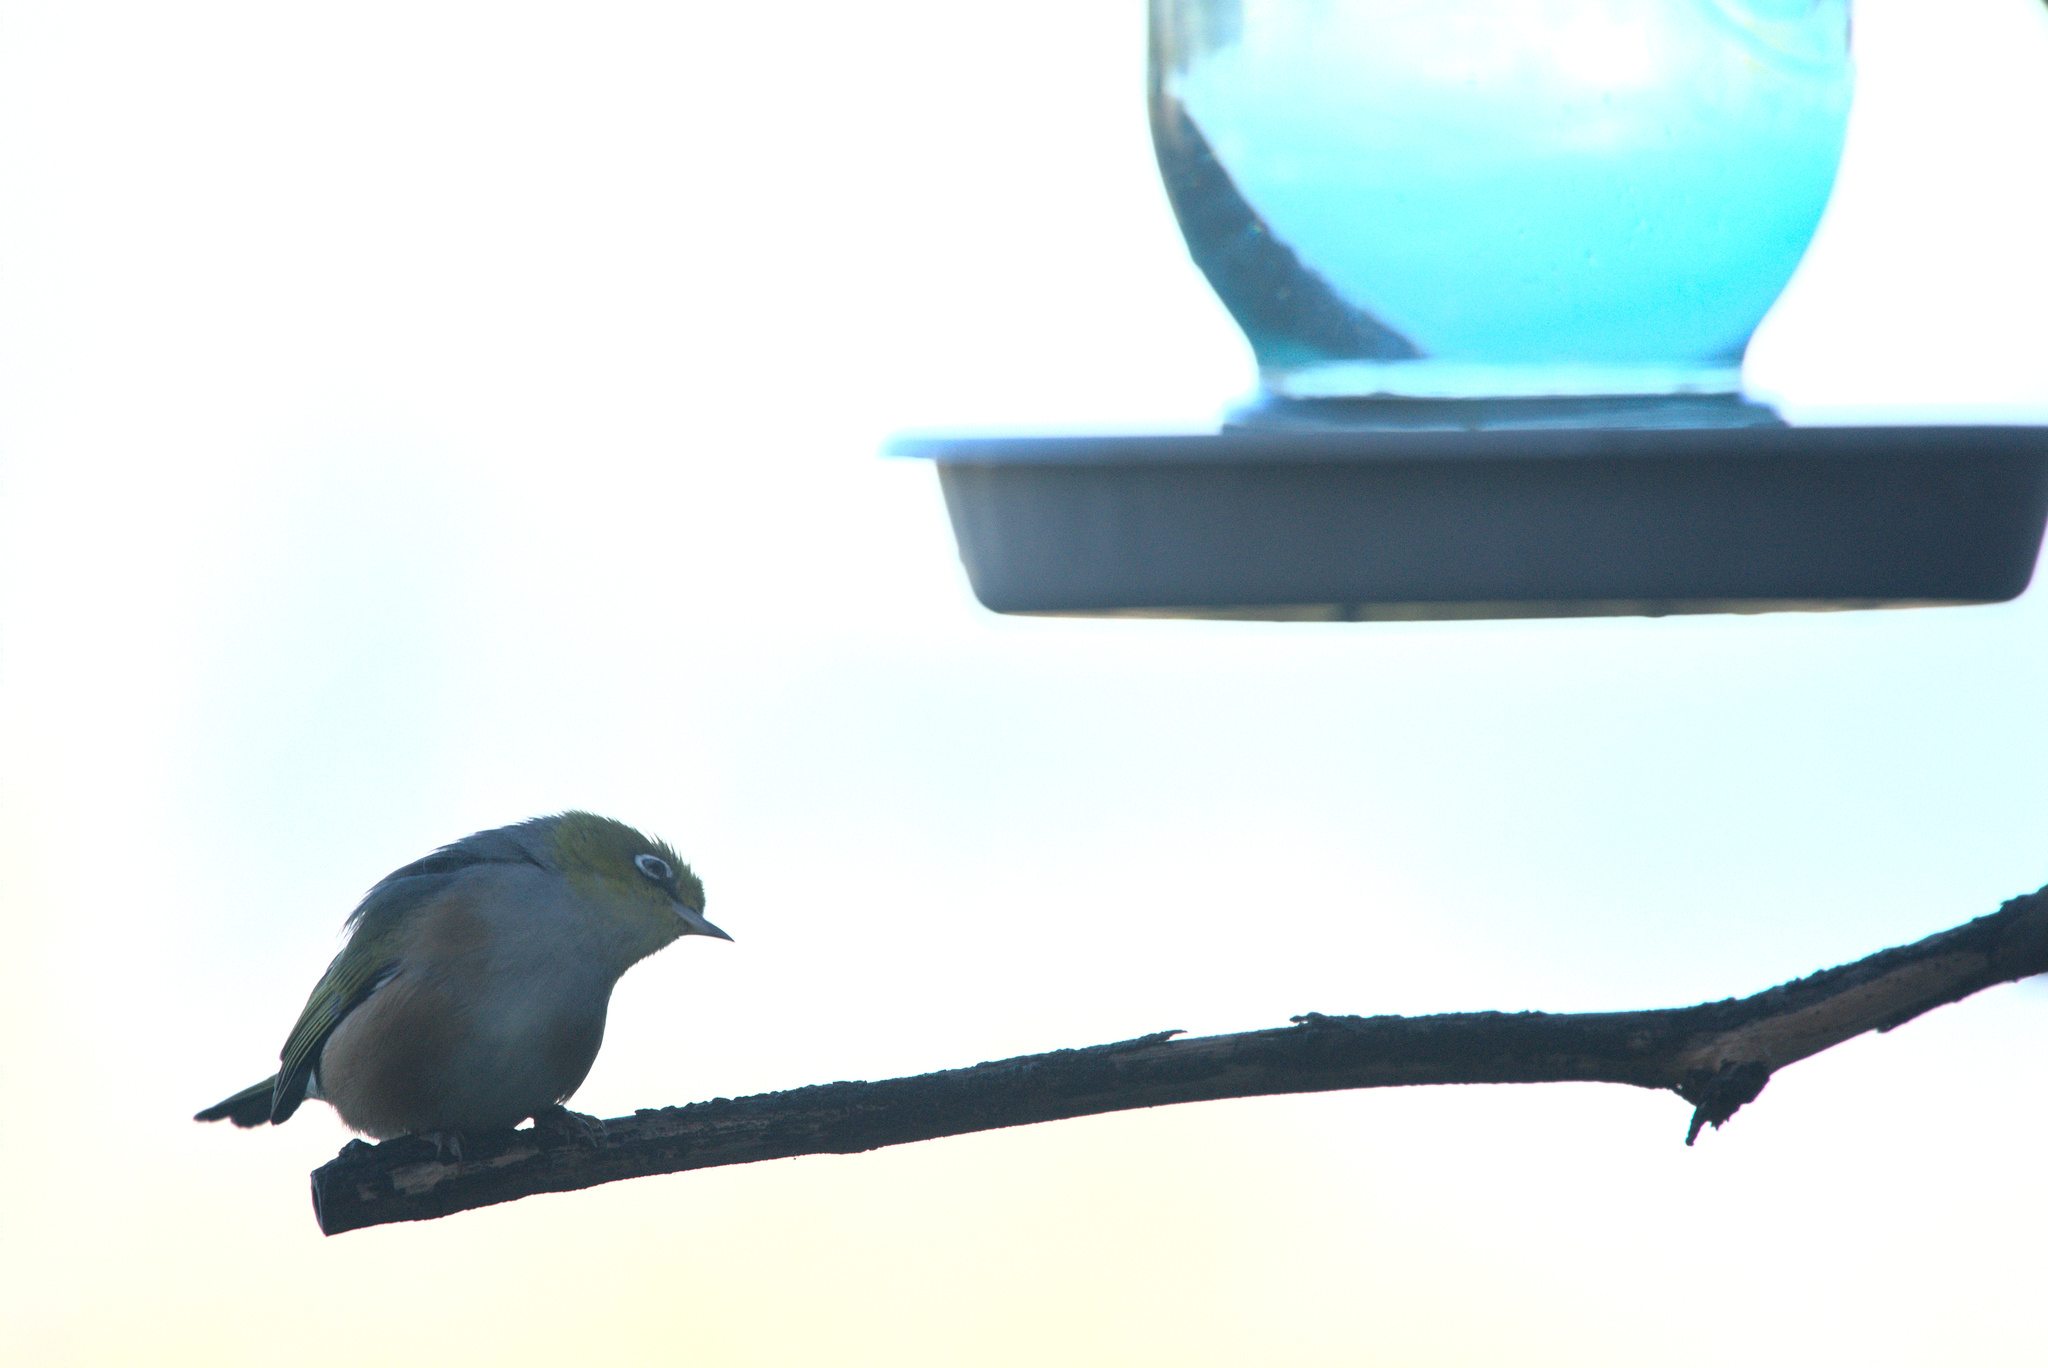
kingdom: Animalia
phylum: Chordata
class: Aves
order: Passeriformes
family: Zosteropidae
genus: Zosterops
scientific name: Zosterops lateralis
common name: Silvereye
